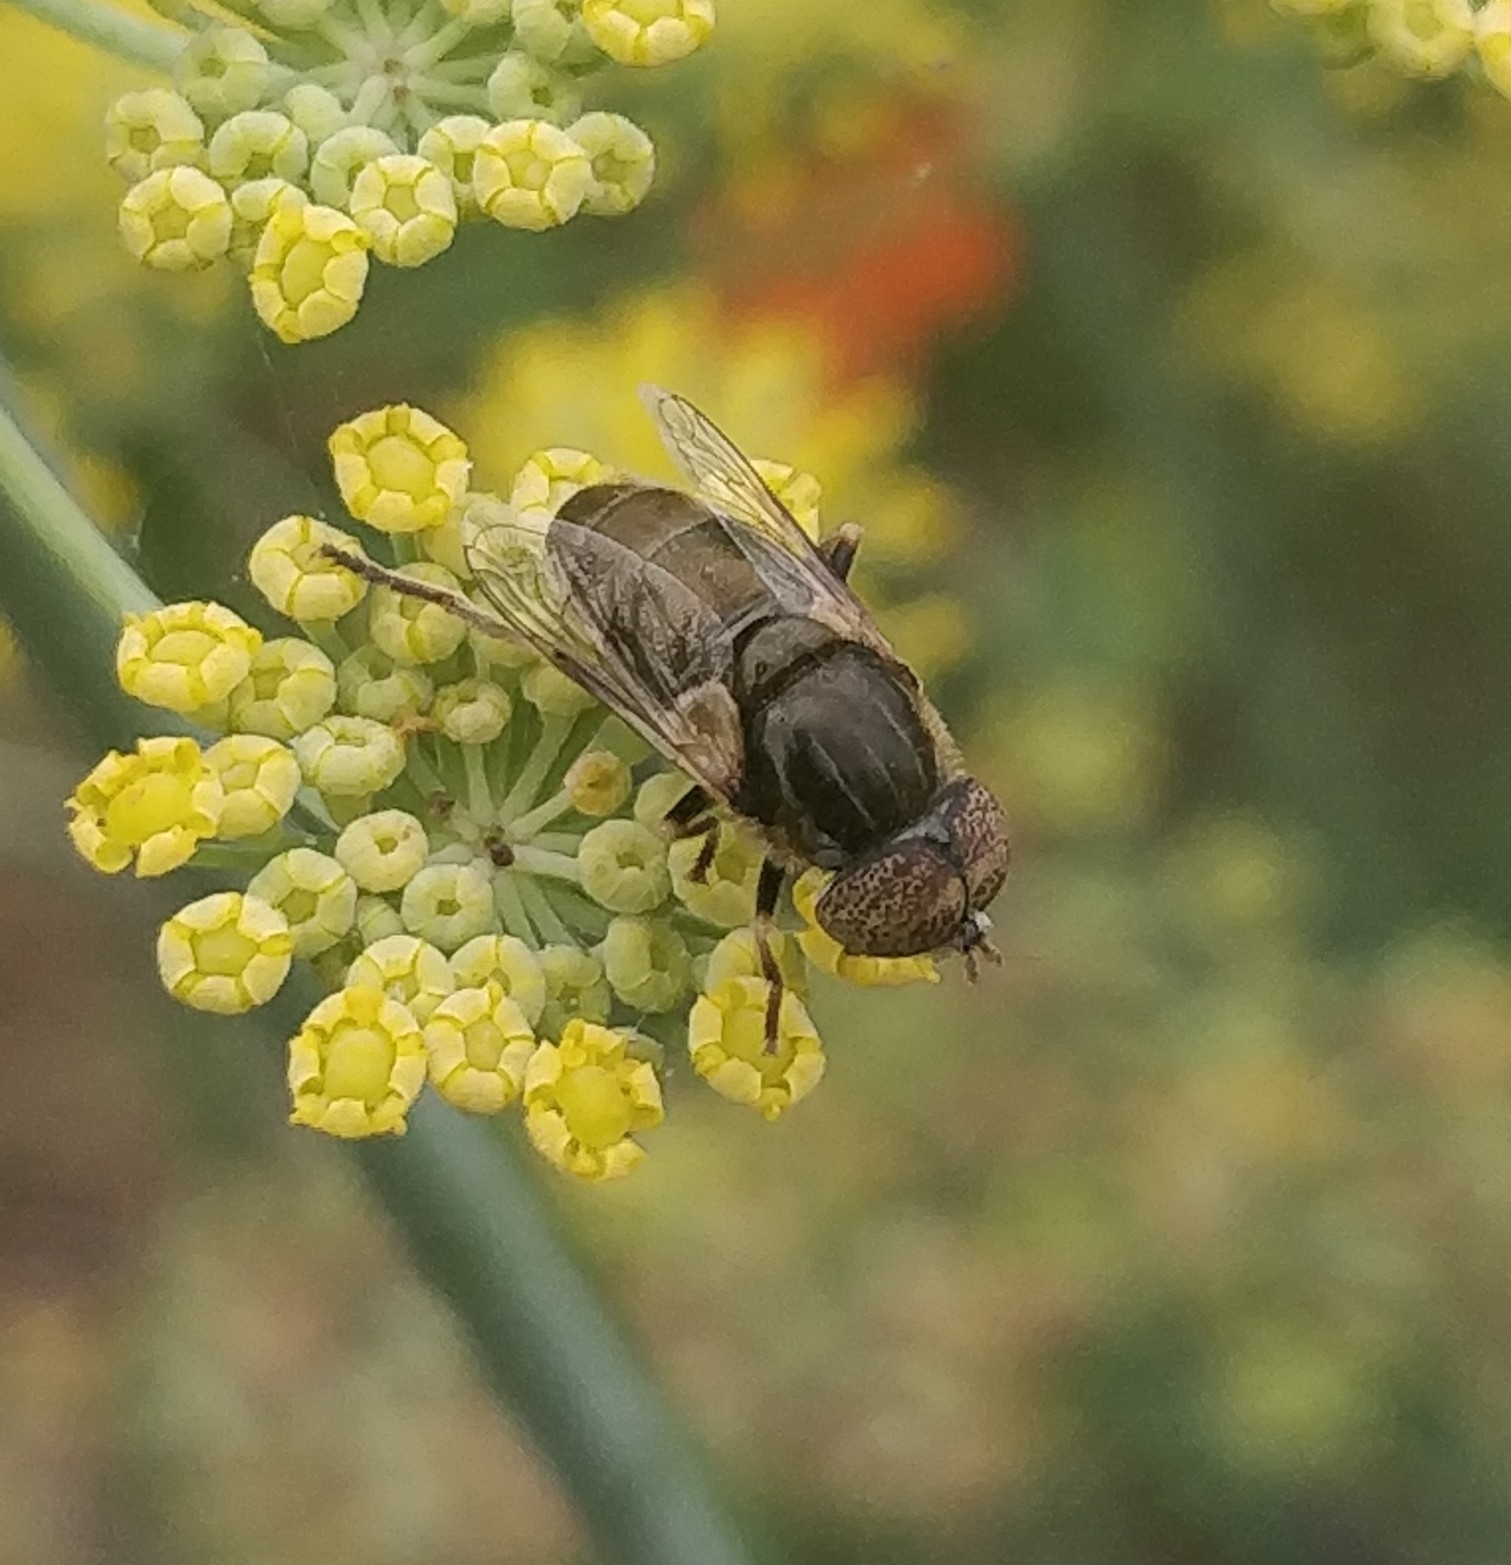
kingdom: Animalia
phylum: Arthropoda
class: Insecta
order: Diptera
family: Syrphidae
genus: Eristalinus
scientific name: Eristalinus aeneus
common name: Syrphid fly
